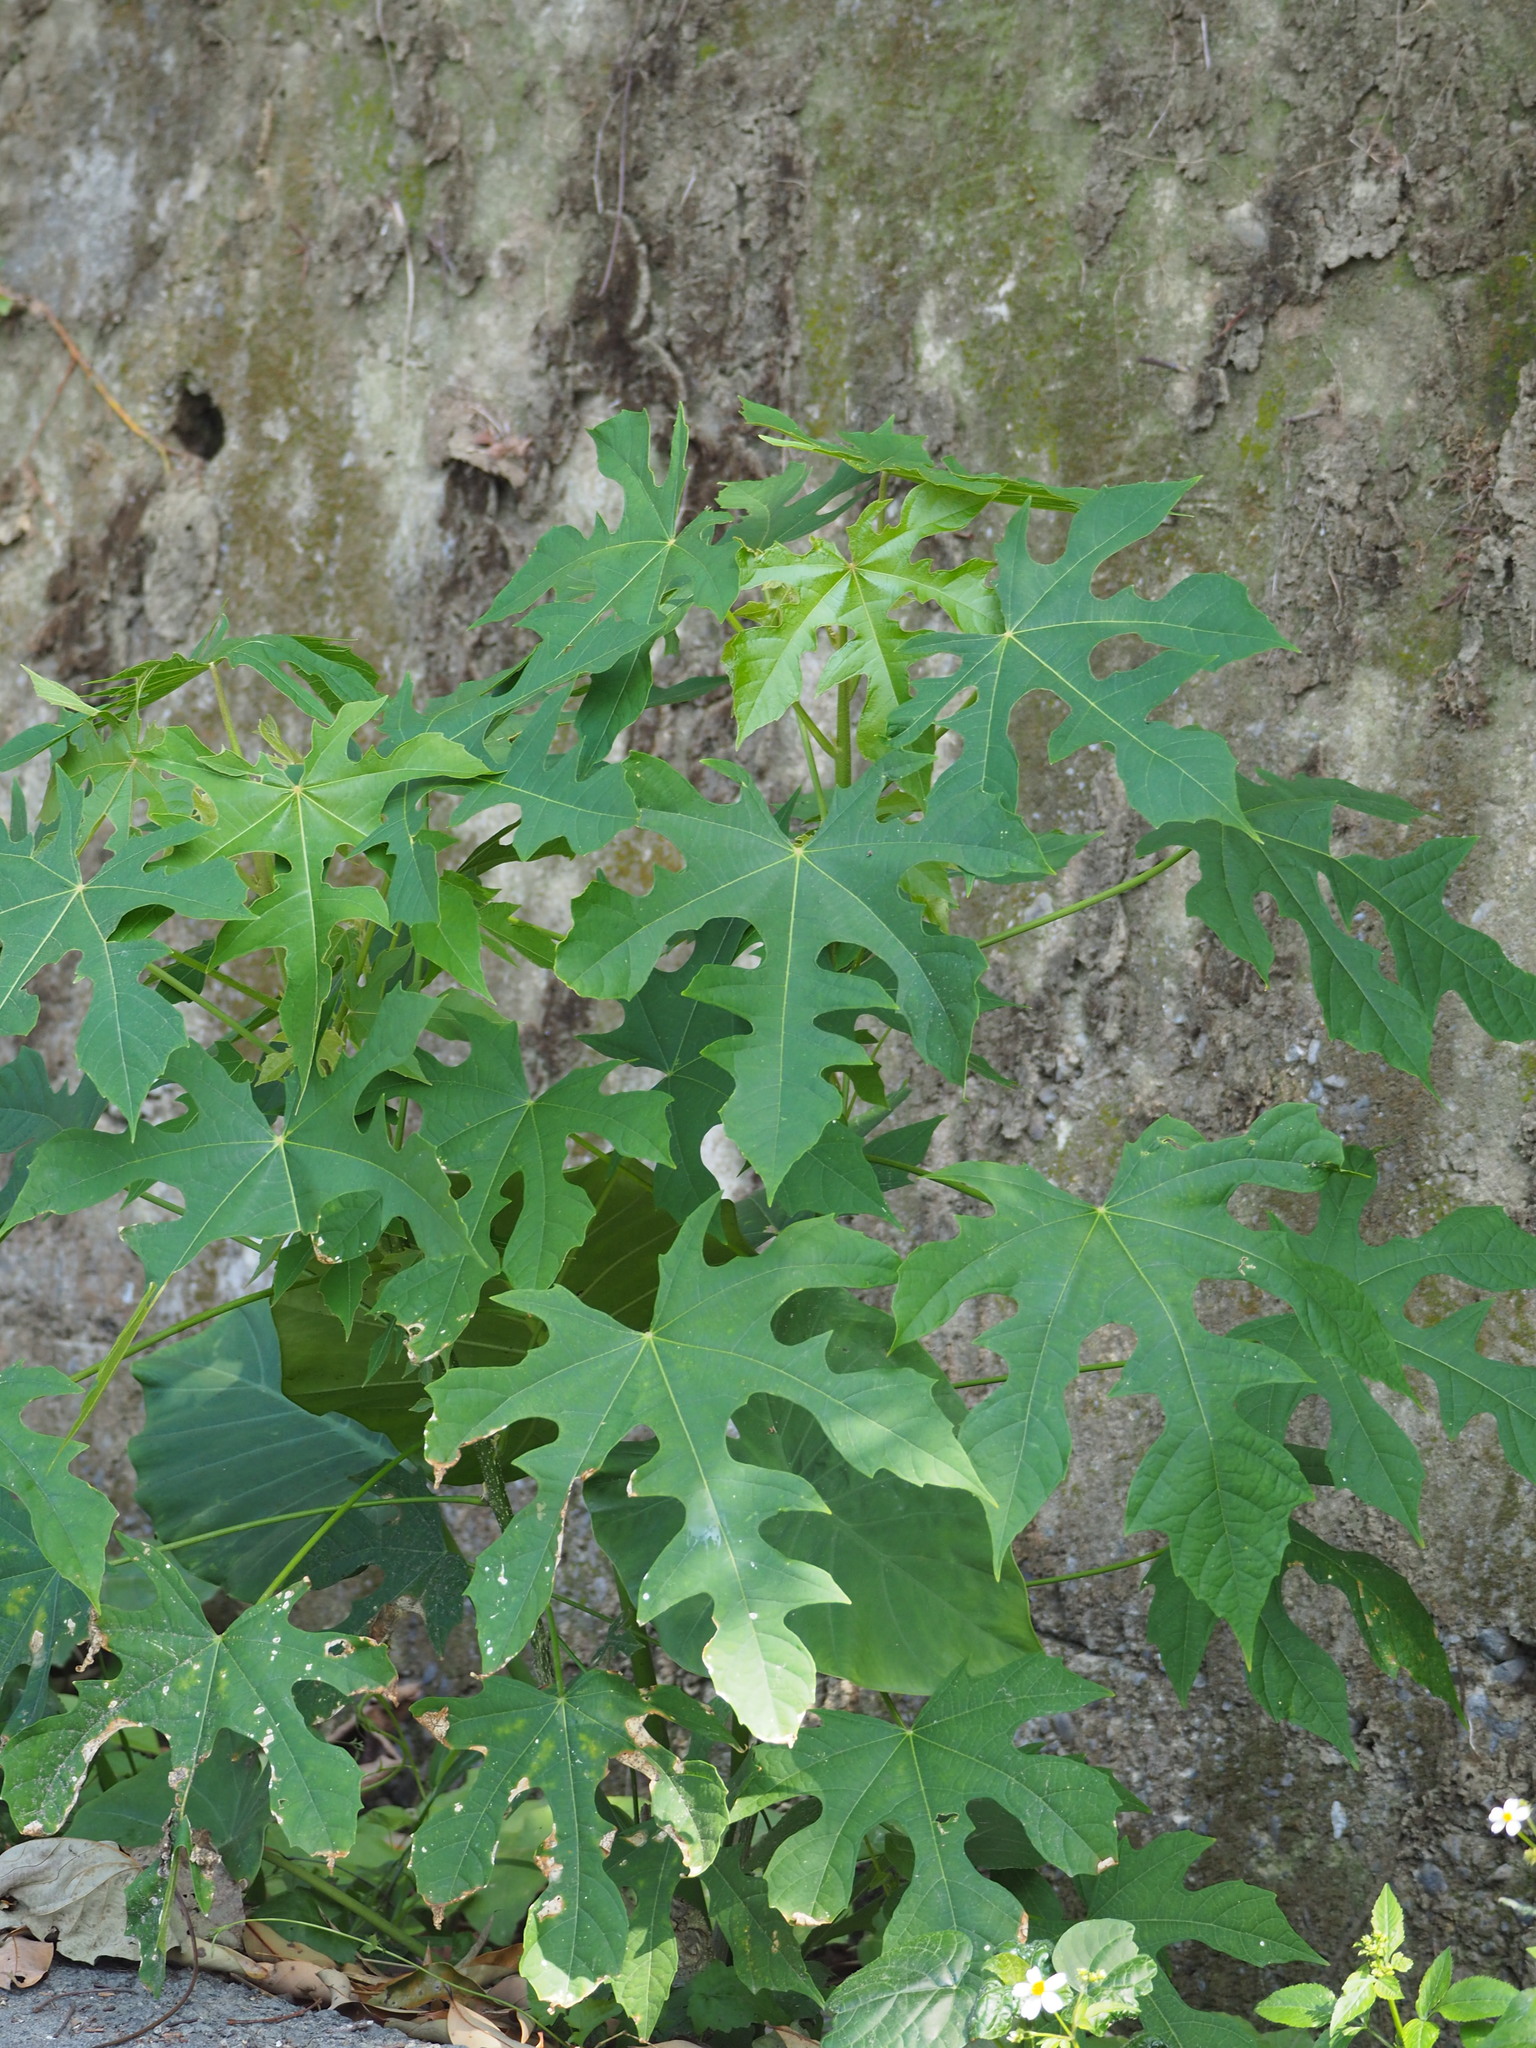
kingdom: Plantae
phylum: Tracheophyta
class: Magnoliopsida
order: Malpighiales
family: Euphorbiaceae
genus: Melanolepis
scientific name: Melanolepis multiglandulosa
